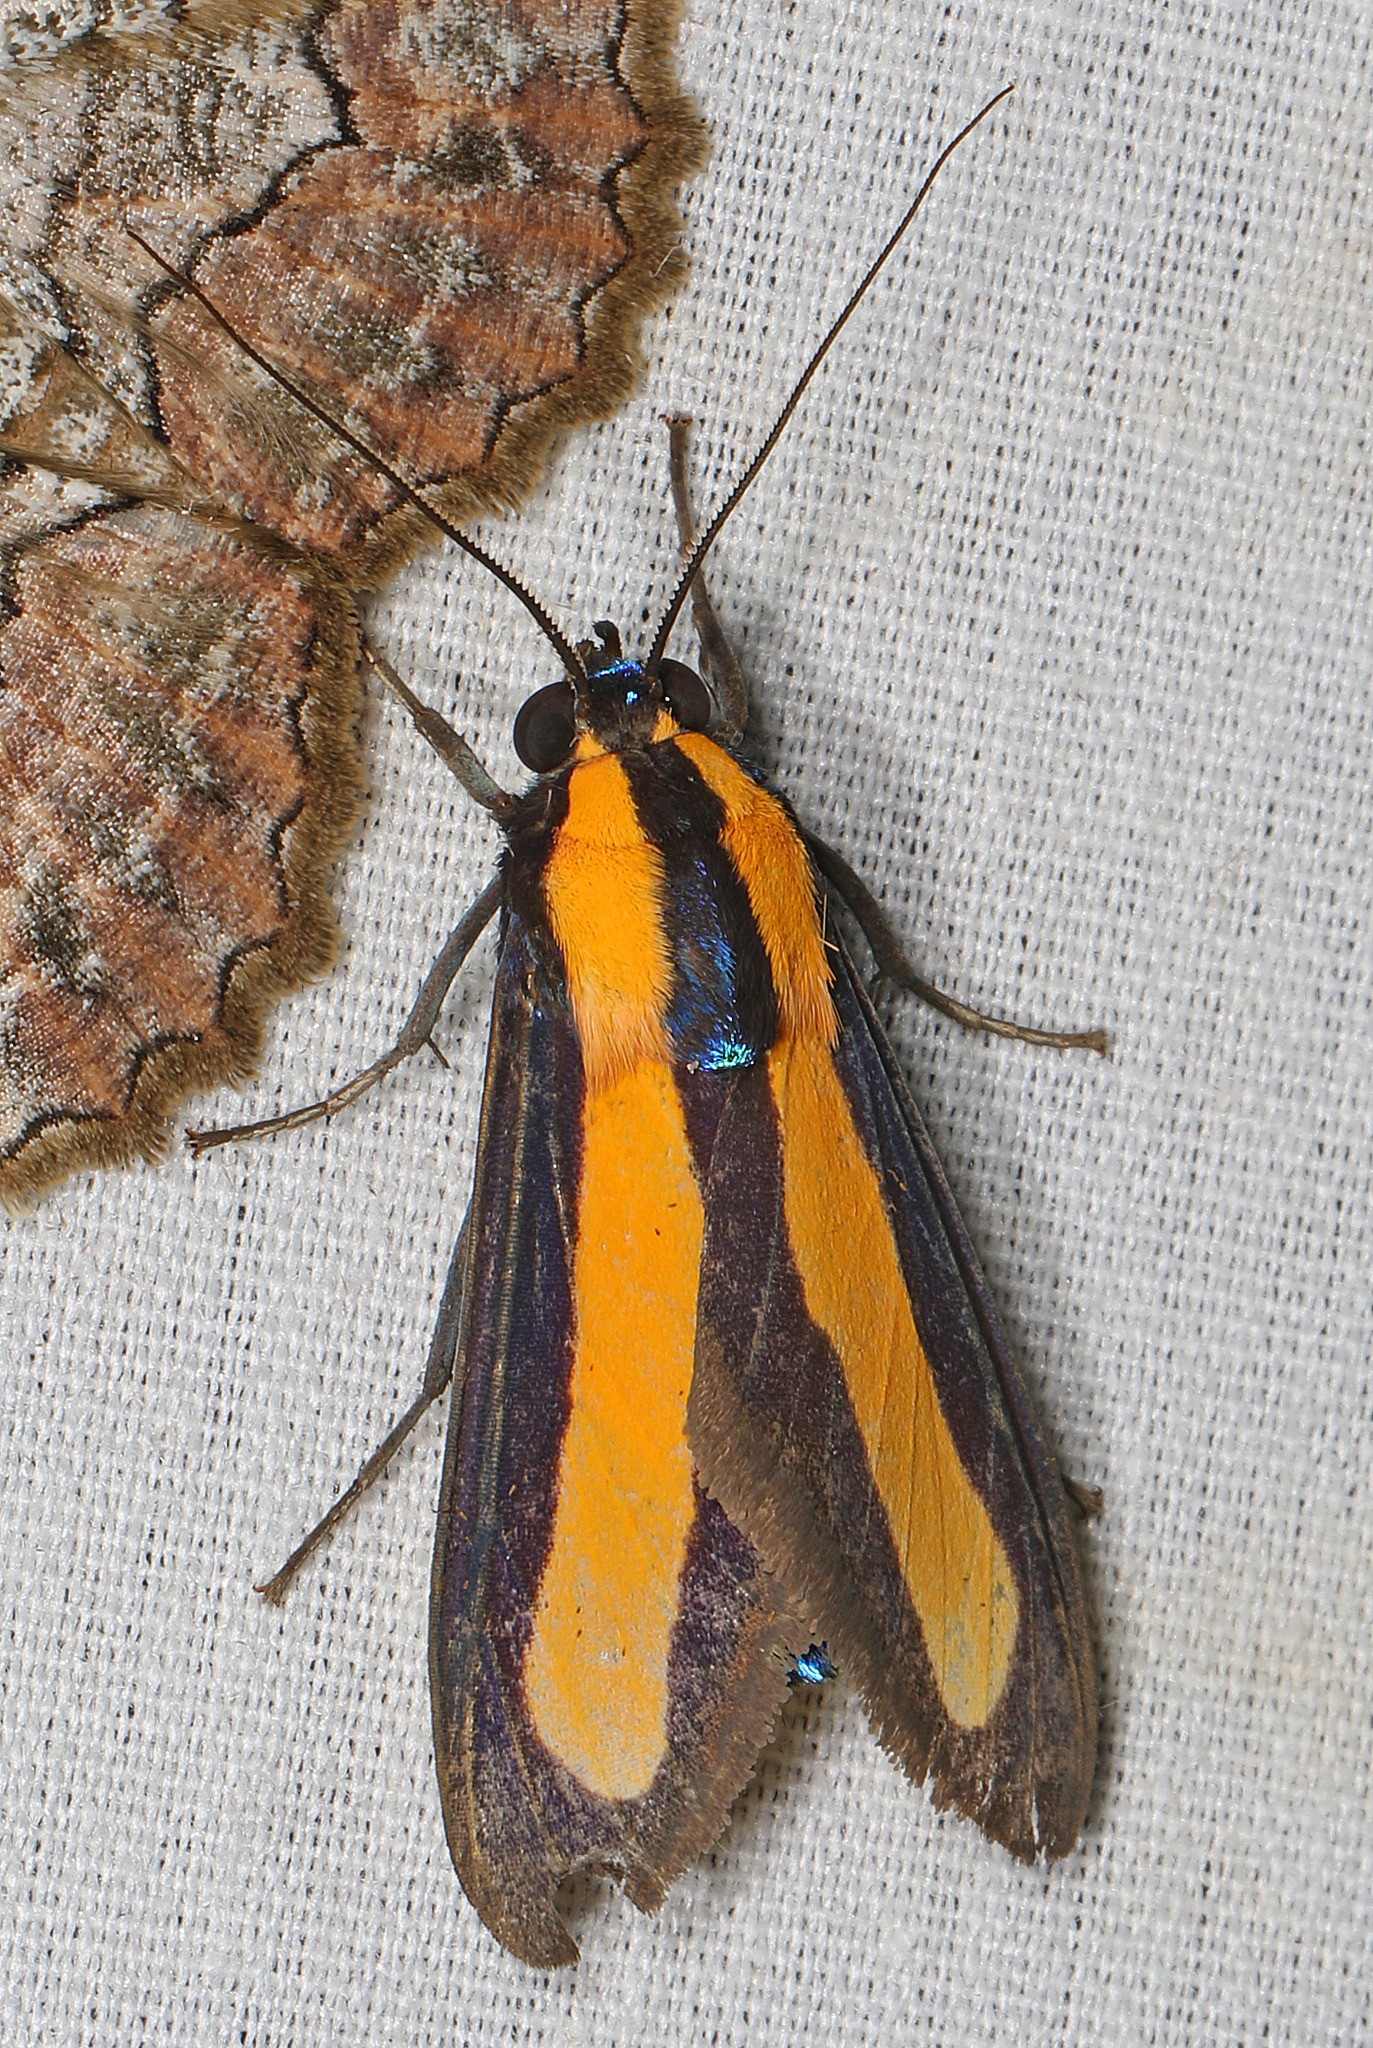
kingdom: Animalia
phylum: Arthropoda
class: Insecta
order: Lepidoptera
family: Erebidae
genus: Ormetica
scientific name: Ormetica flavobasalis
